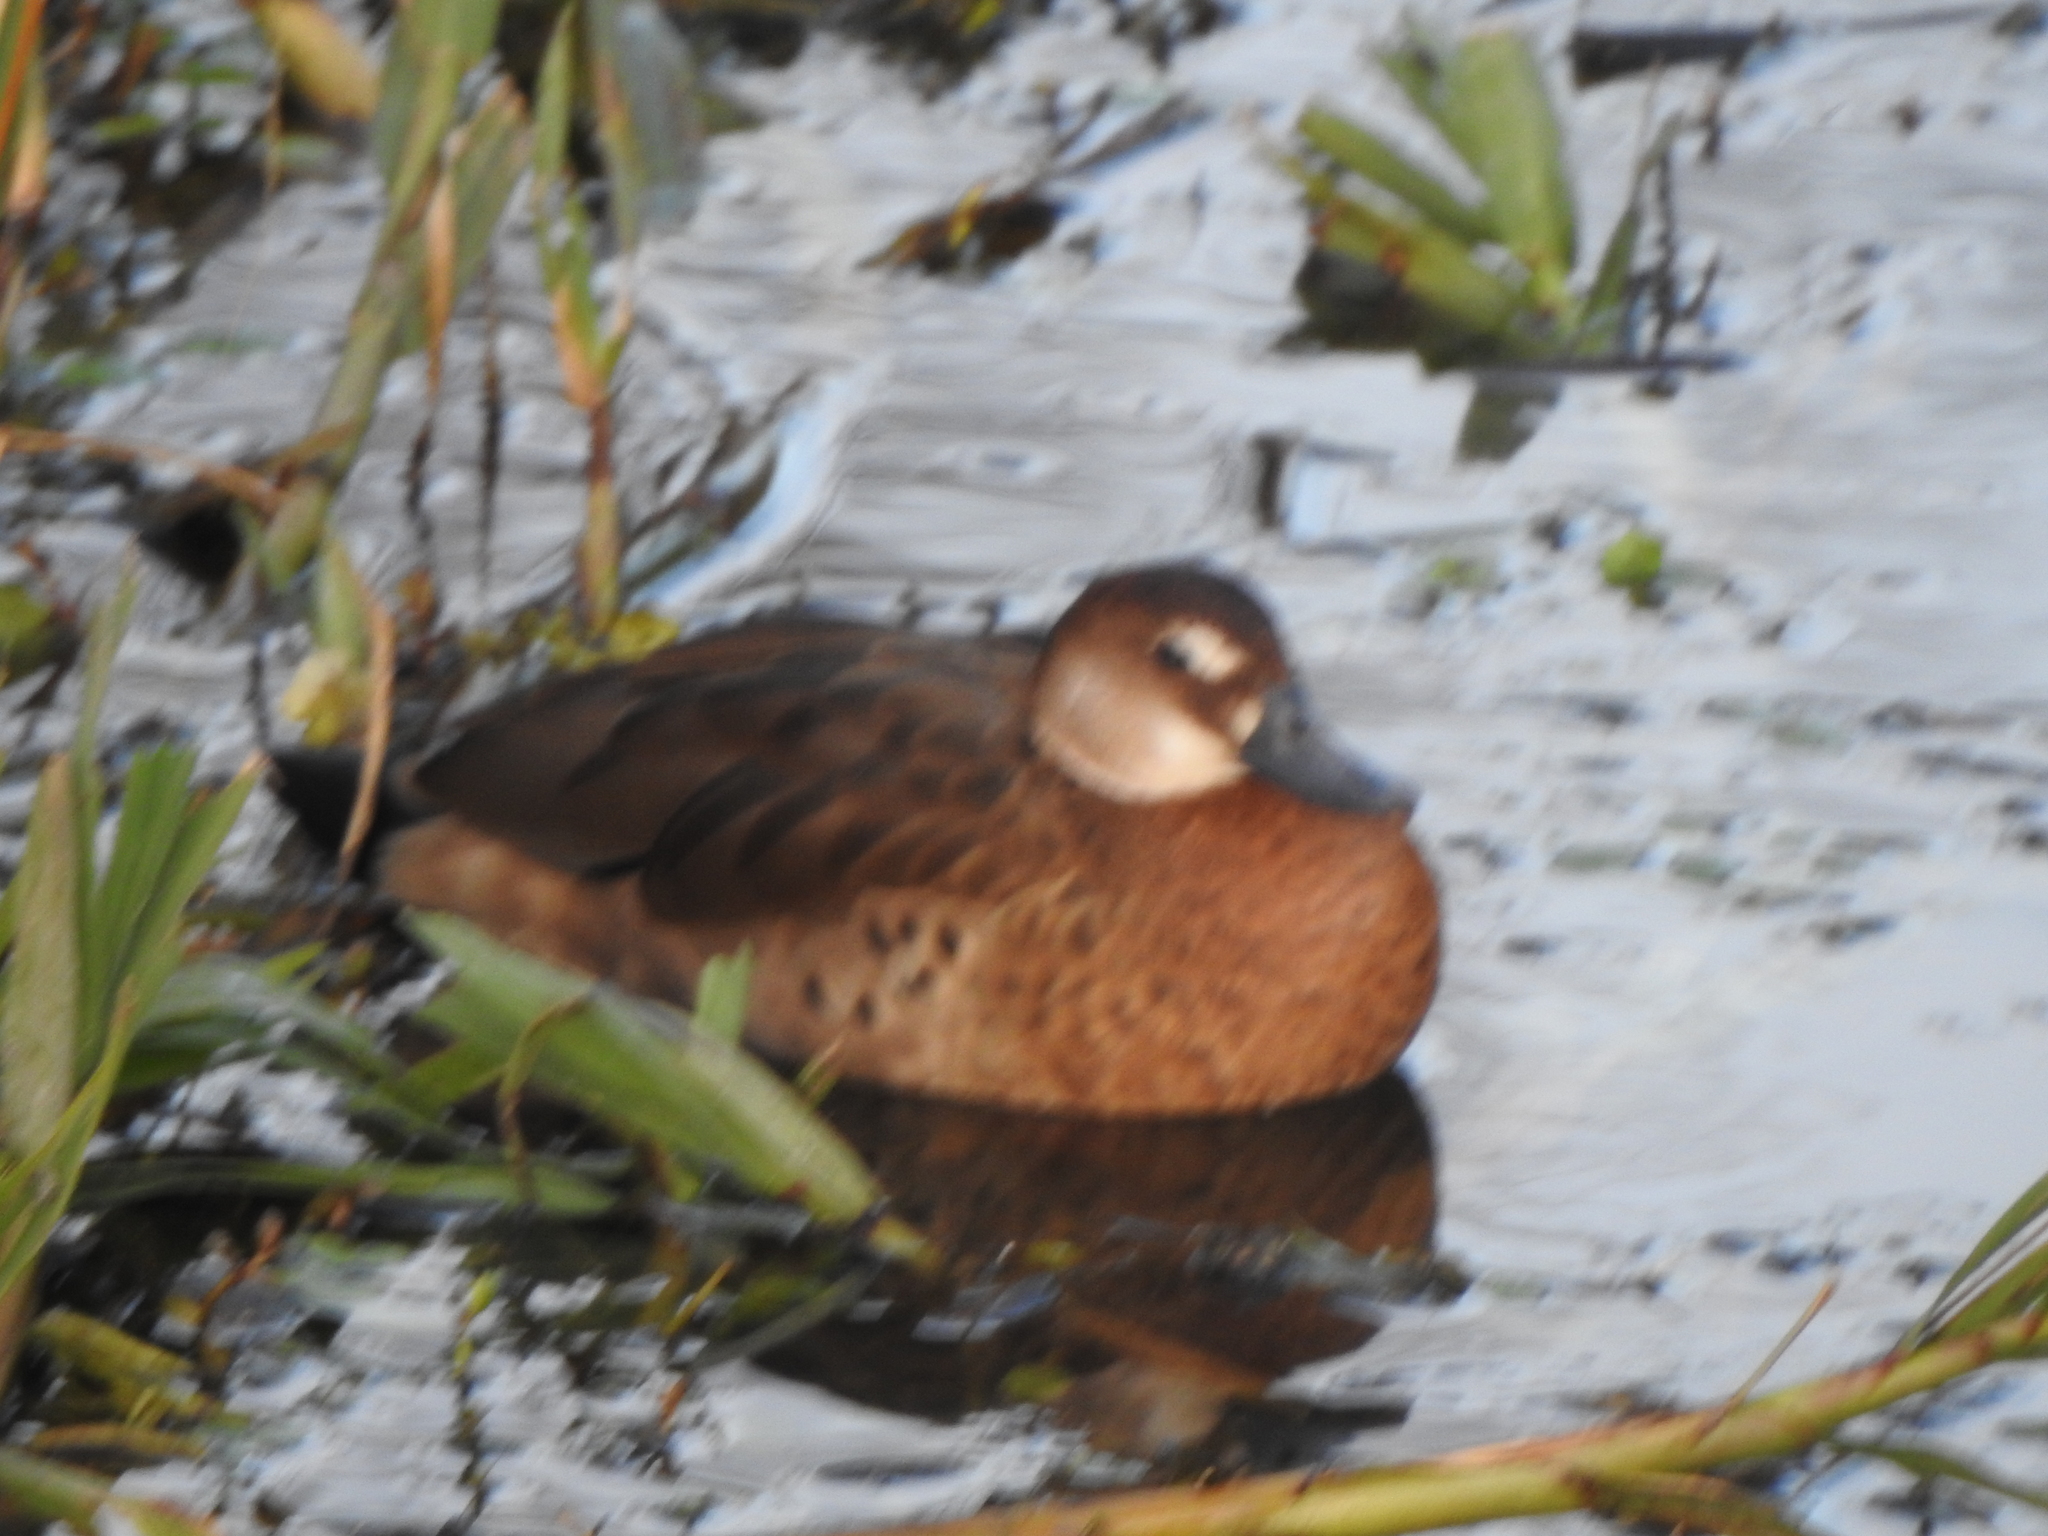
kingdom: Animalia
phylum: Chordata
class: Aves
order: Anseriformes
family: Anatidae
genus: Amazonetta
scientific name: Amazonetta brasiliensis
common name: Brazilian teal
